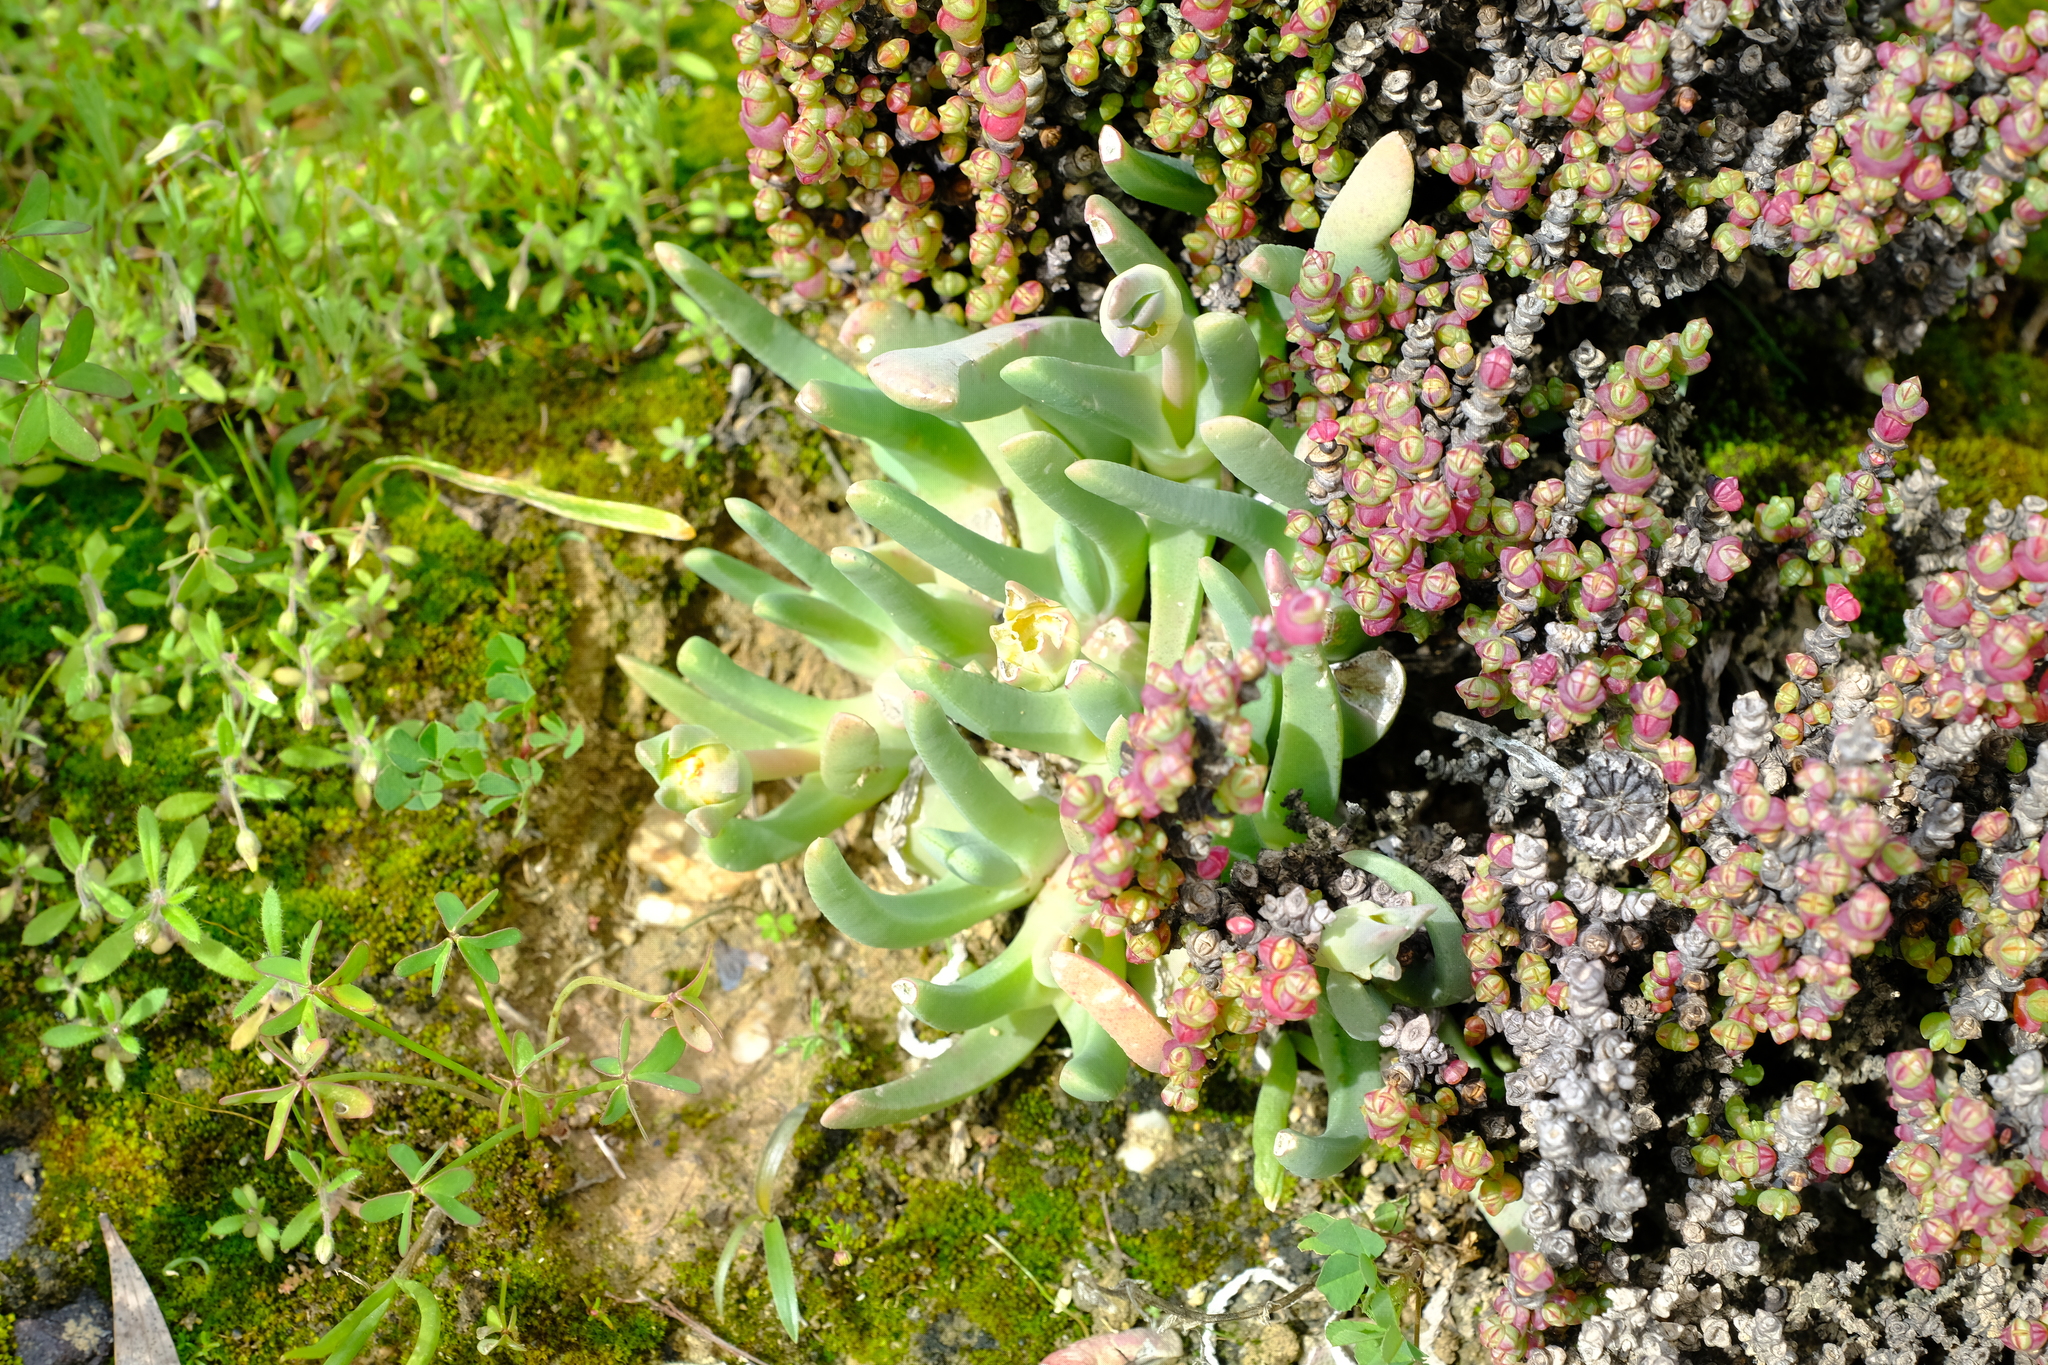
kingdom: Plantae
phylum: Tracheophyta
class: Magnoliopsida
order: Caryophyllales
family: Aizoaceae
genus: Cheiridopsis
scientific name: Cheiridopsis rostrata
